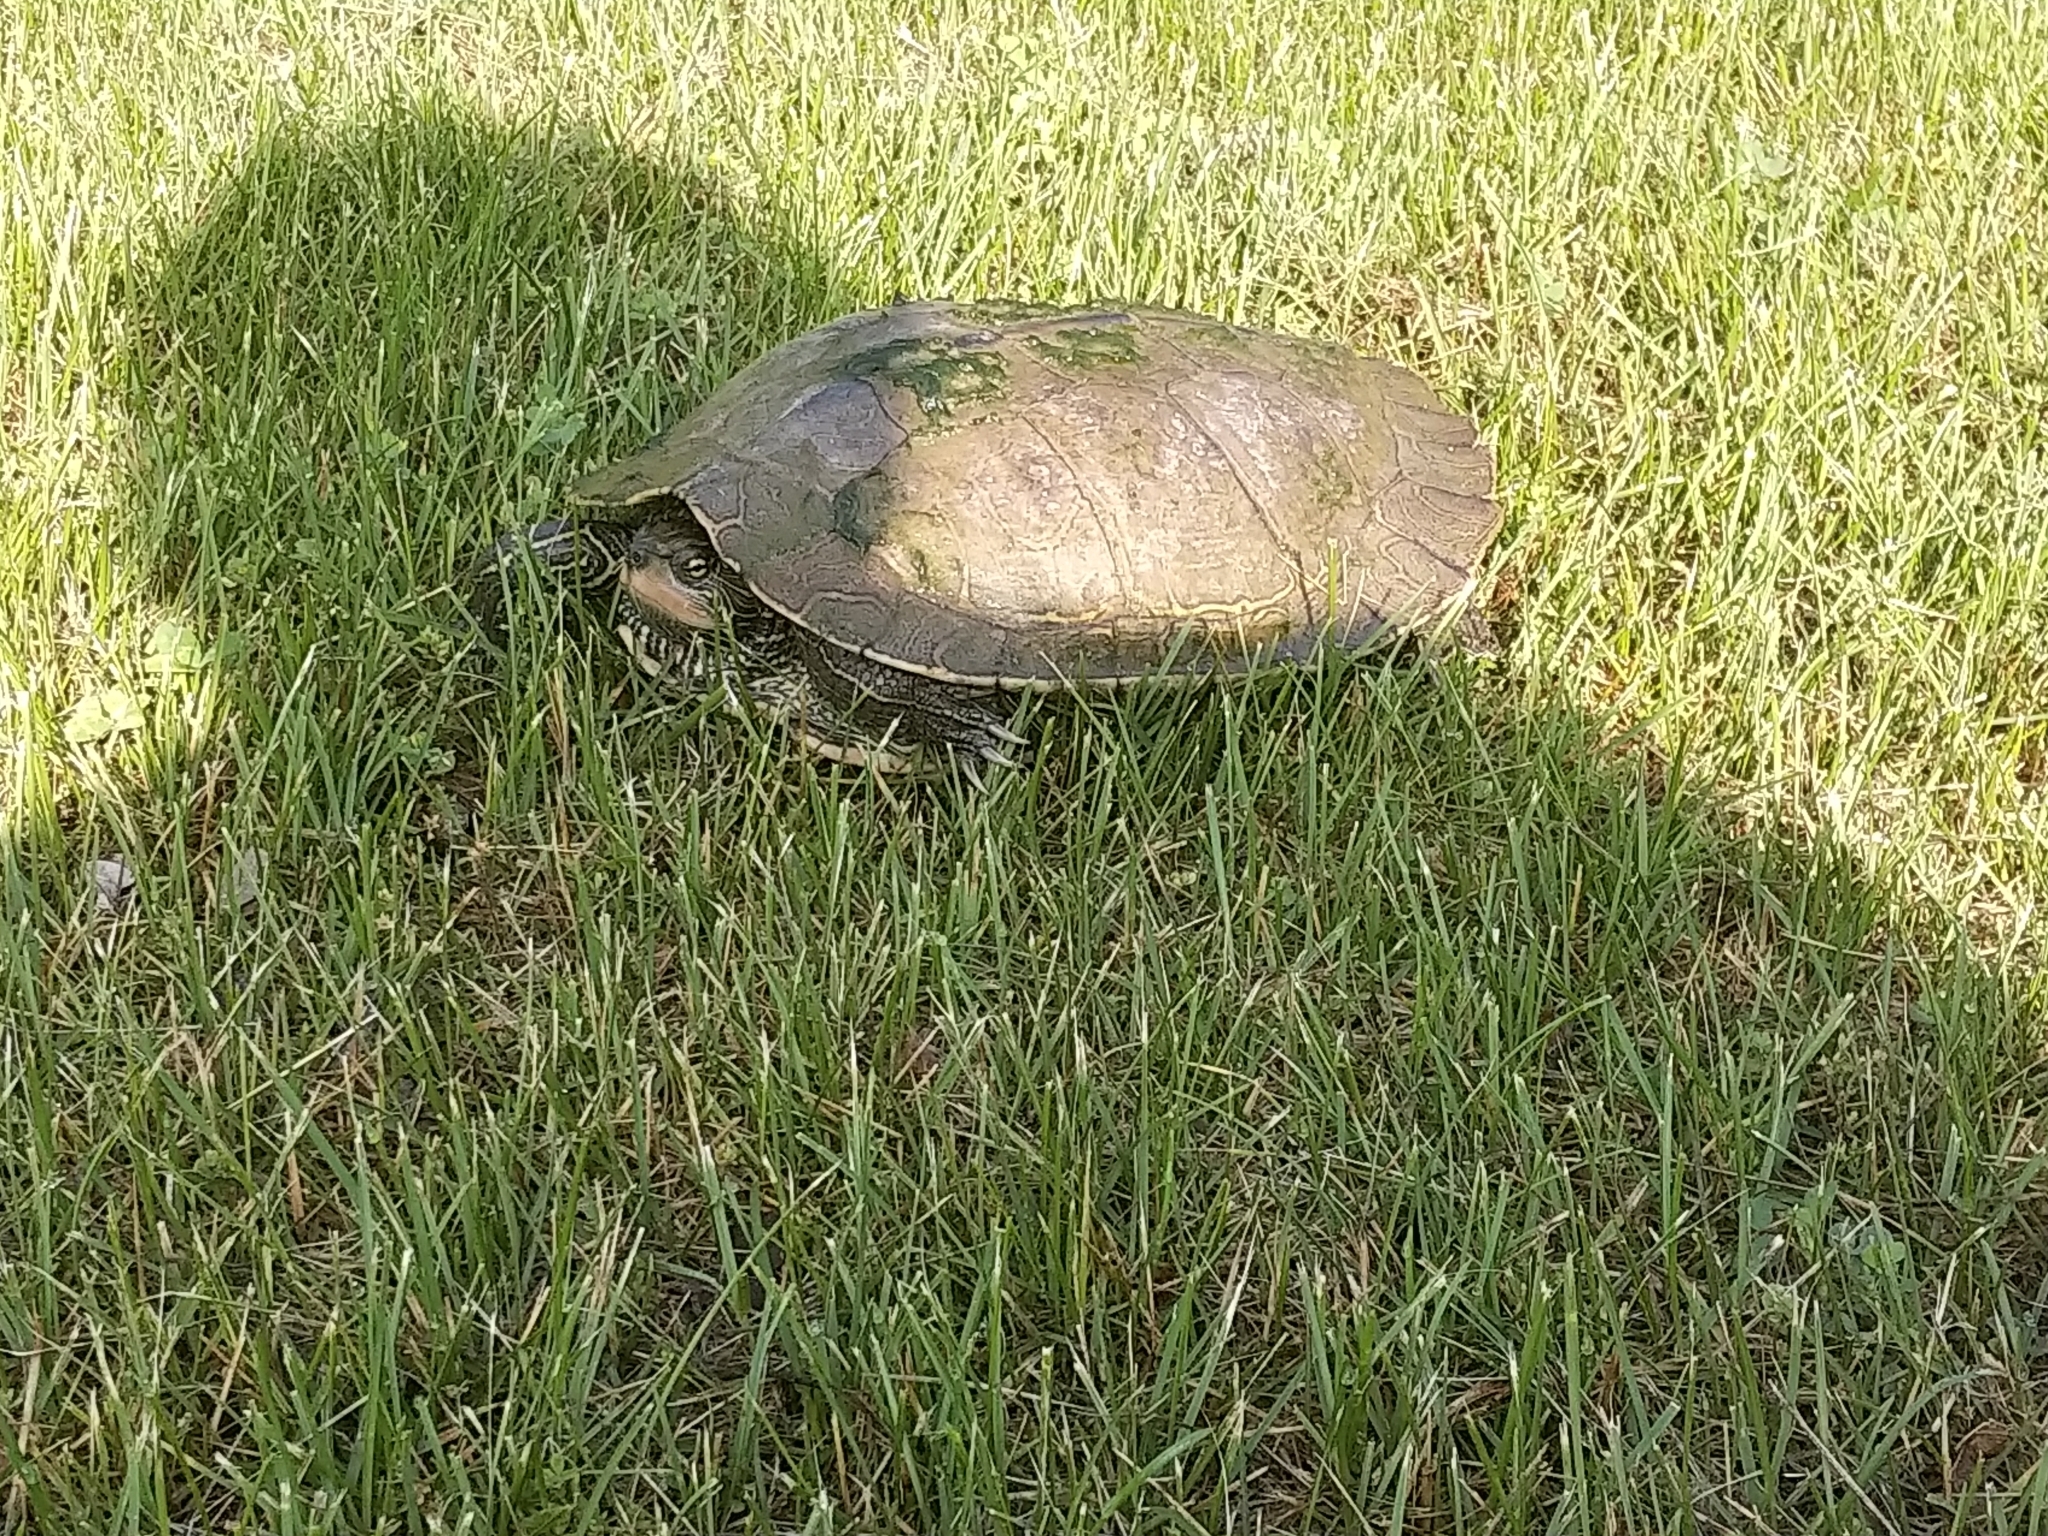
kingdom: Animalia
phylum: Chordata
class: Testudines
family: Emydidae
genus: Graptemys
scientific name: Graptemys geographica
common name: Common map turtle
